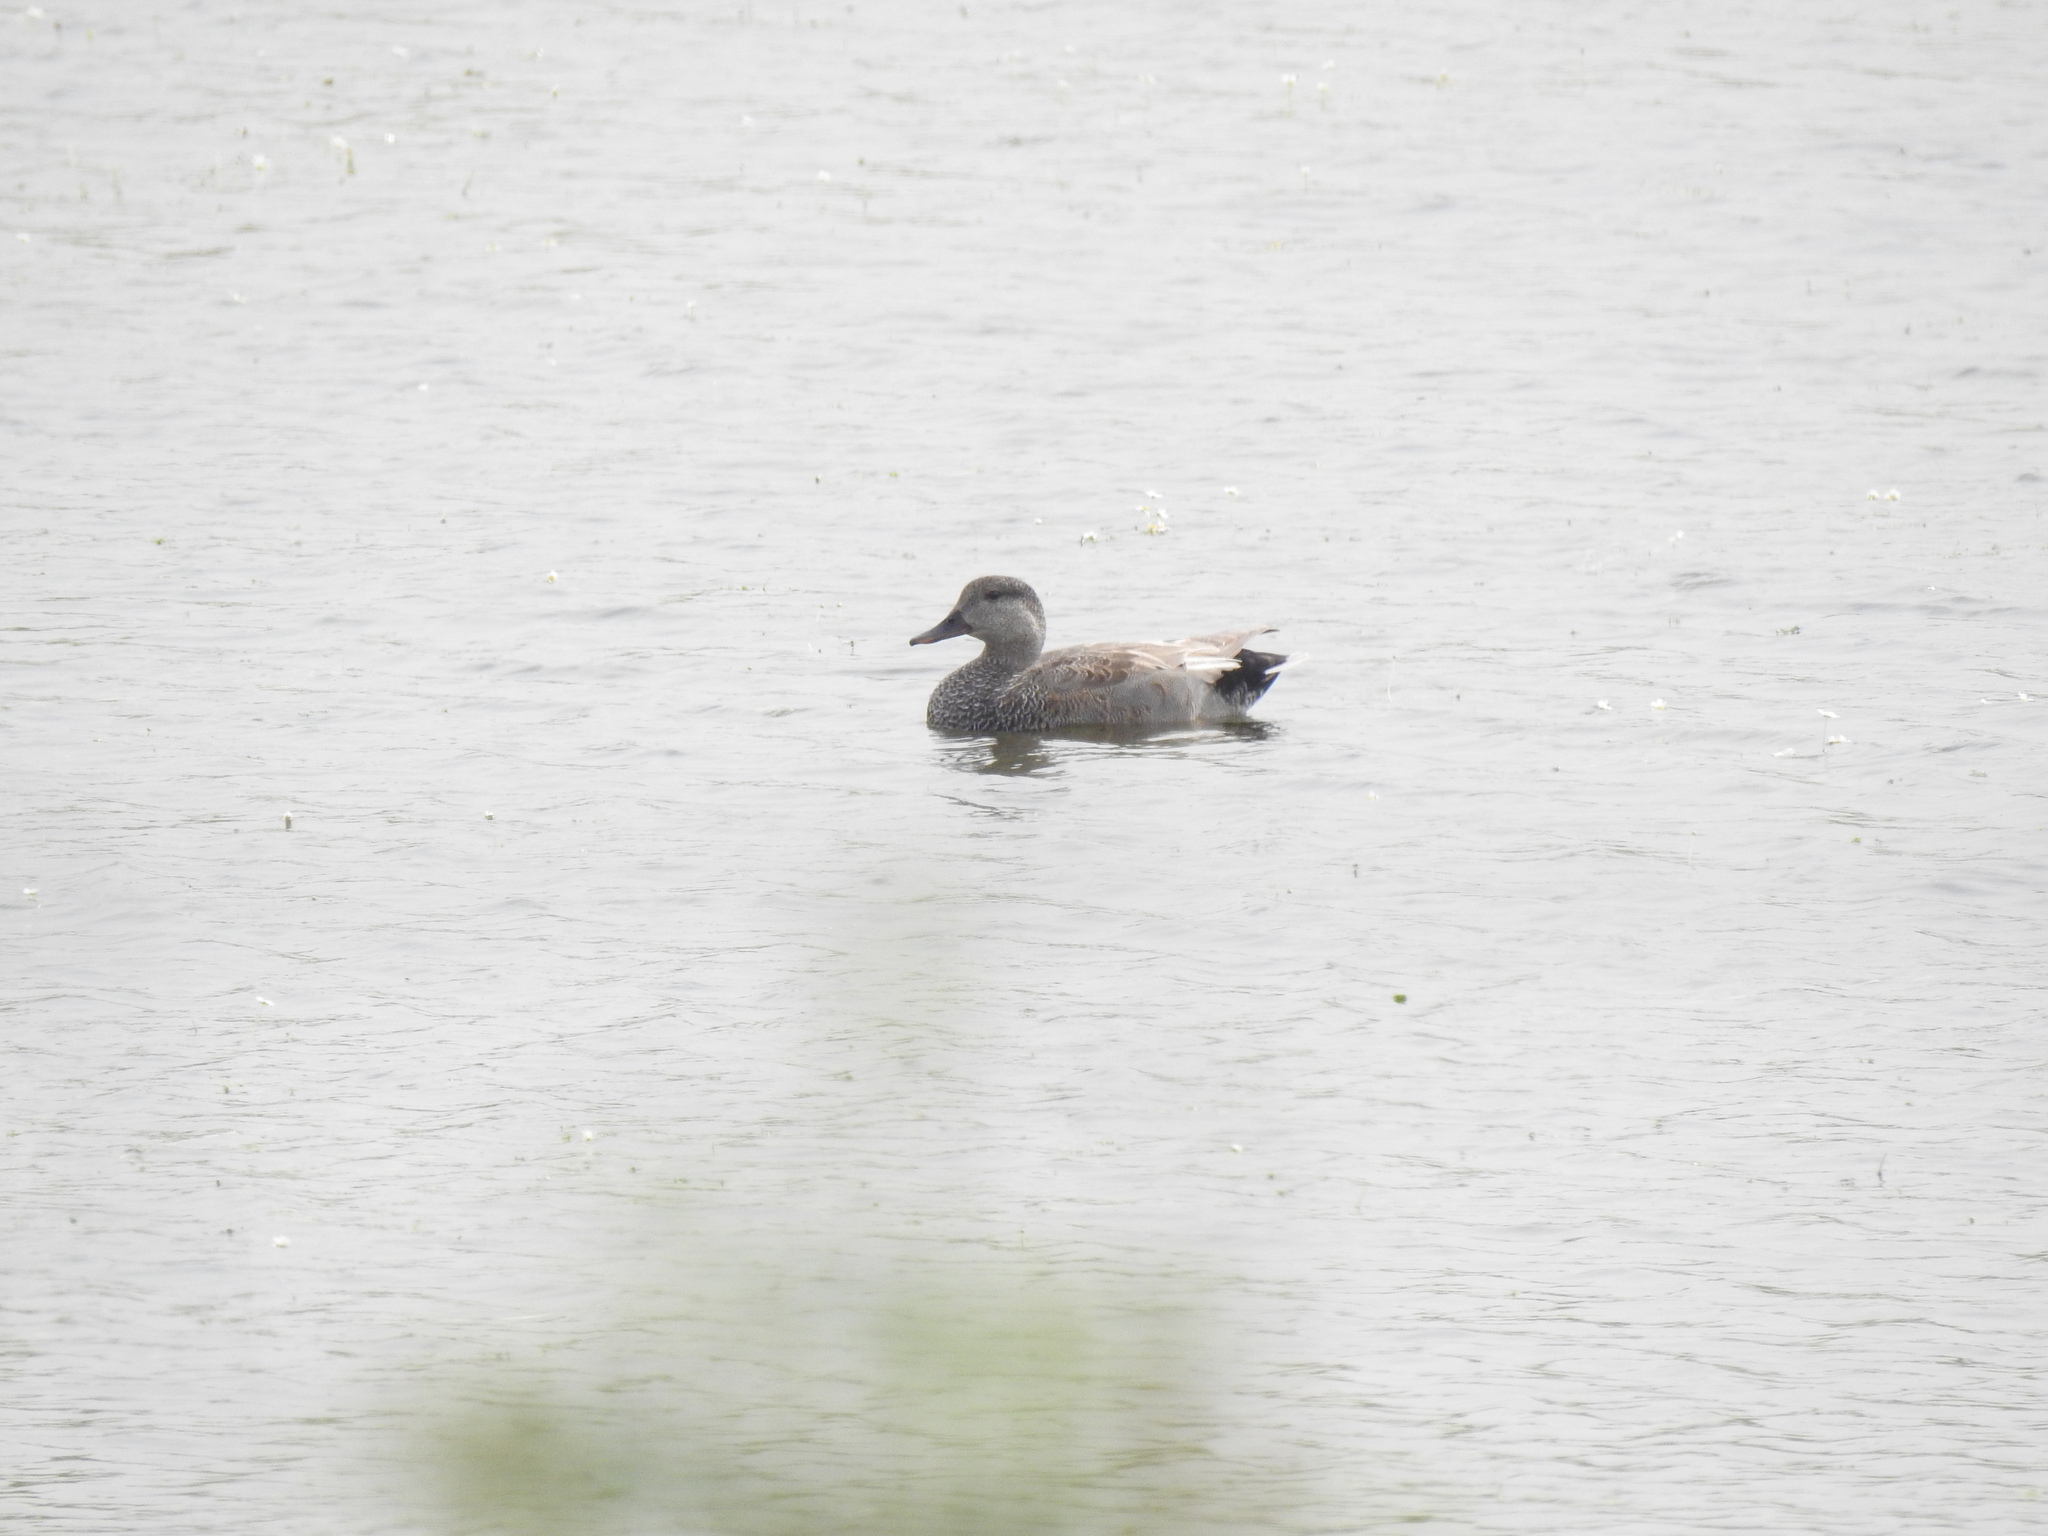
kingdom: Animalia
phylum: Chordata
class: Aves
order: Anseriformes
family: Anatidae
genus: Mareca
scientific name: Mareca strepera
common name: Gadwall
